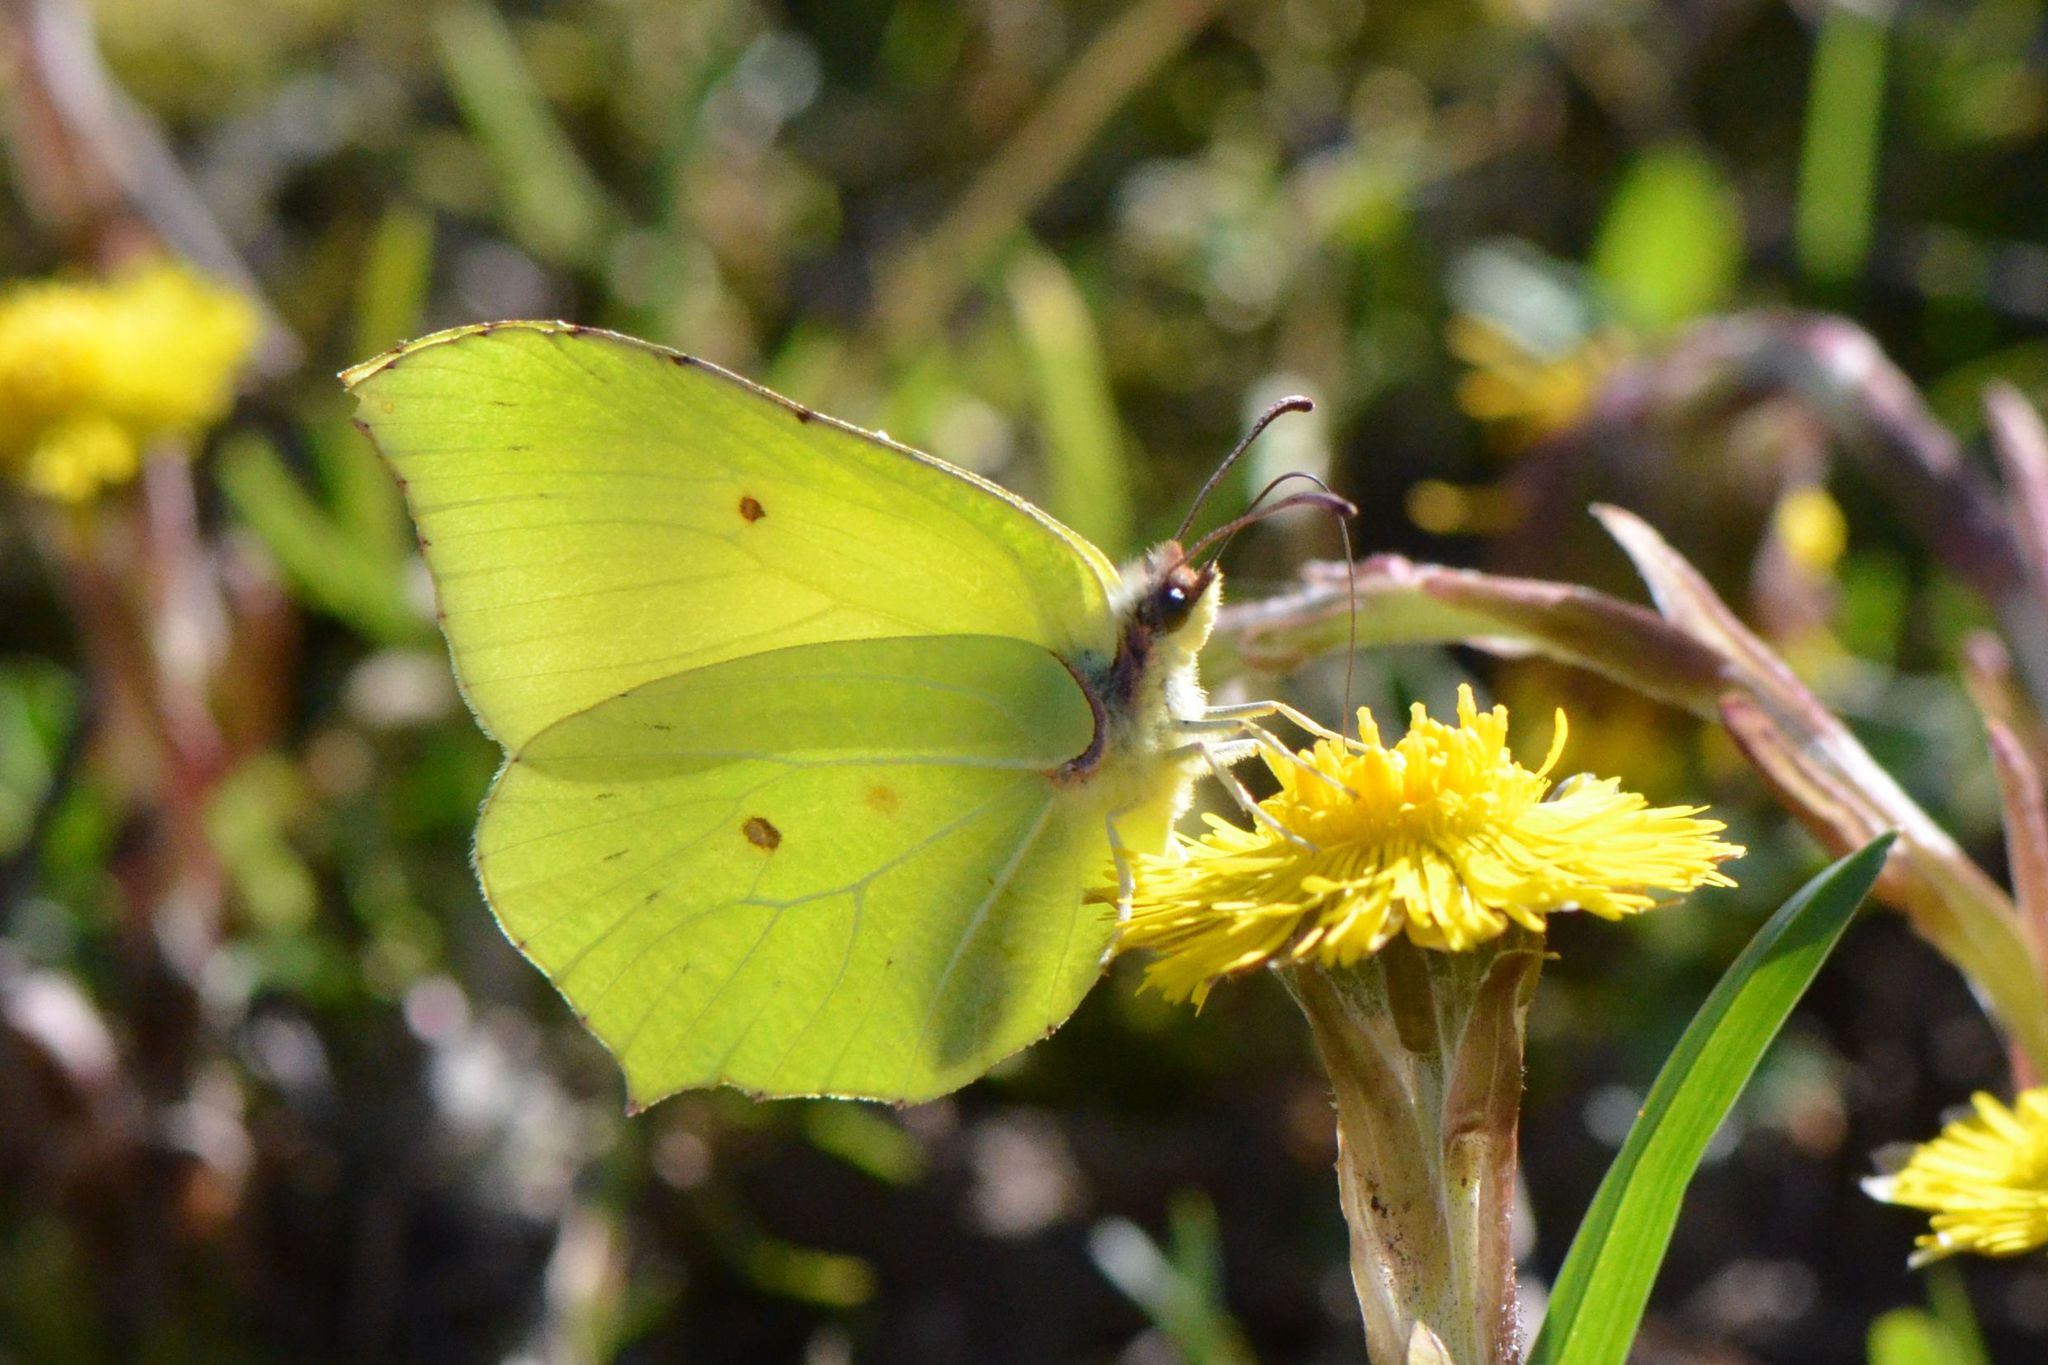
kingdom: Animalia
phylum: Arthropoda
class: Insecta
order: Lepidoptera
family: Pieridae
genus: Gonepteryx
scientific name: Gonepteryx rhamni
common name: Brimstone
